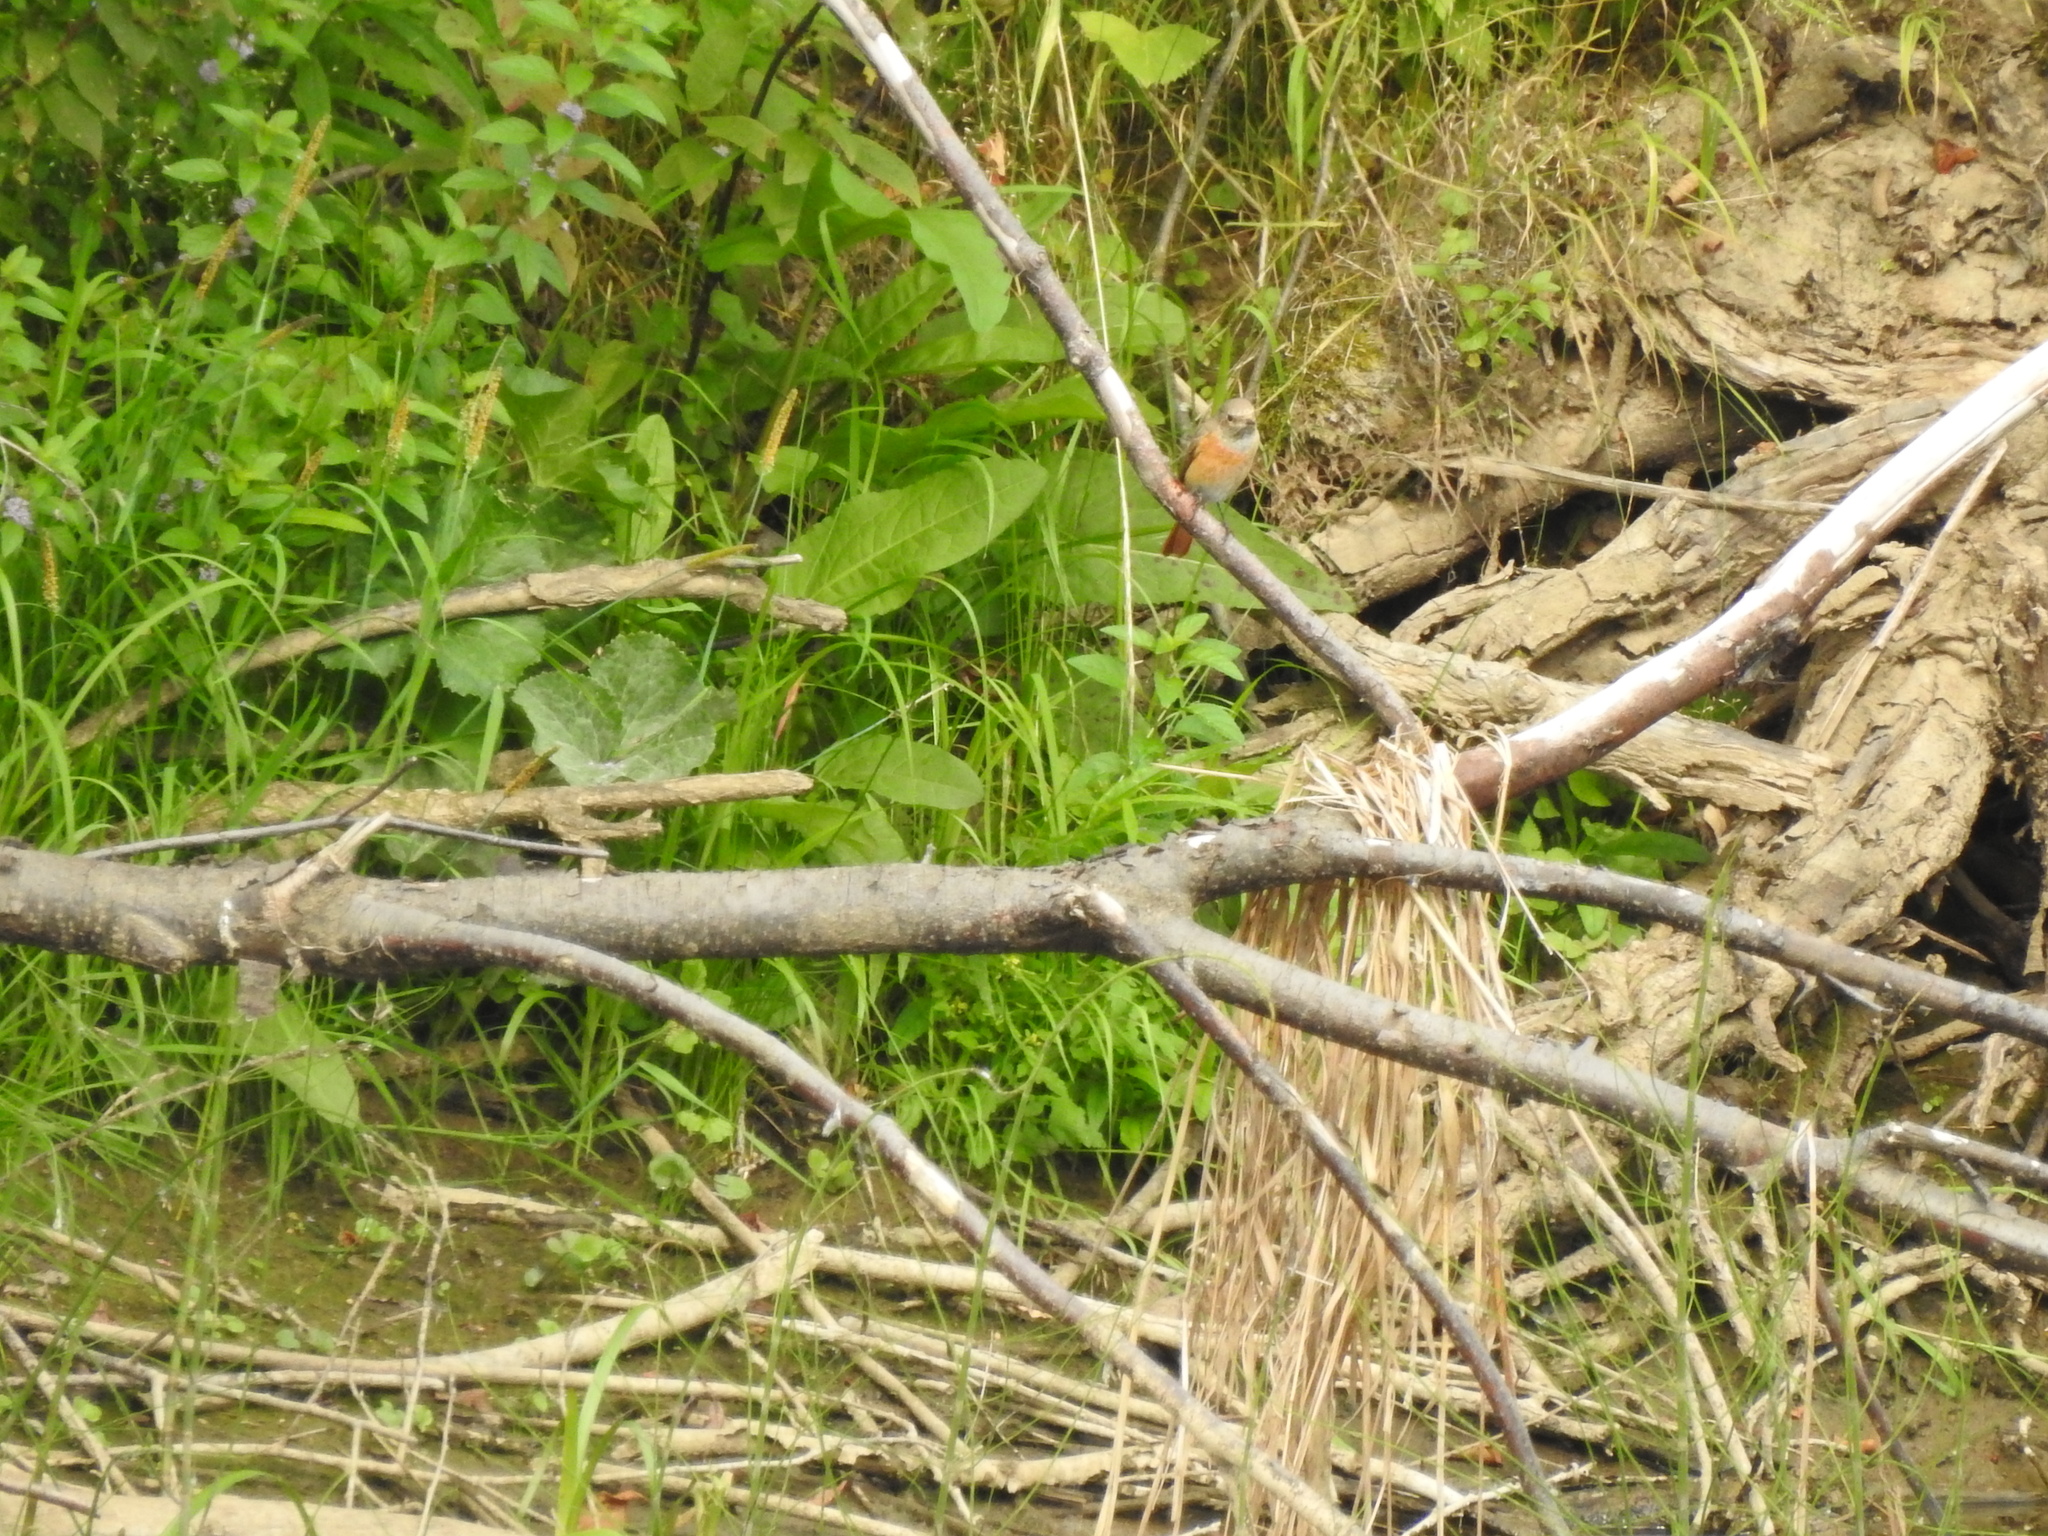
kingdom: Animalia
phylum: Chordata
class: Aves
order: Passeriformes
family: Muscicapidae
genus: Phoenicurus
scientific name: Phoenicurus phoenicurus
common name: Common redstart
